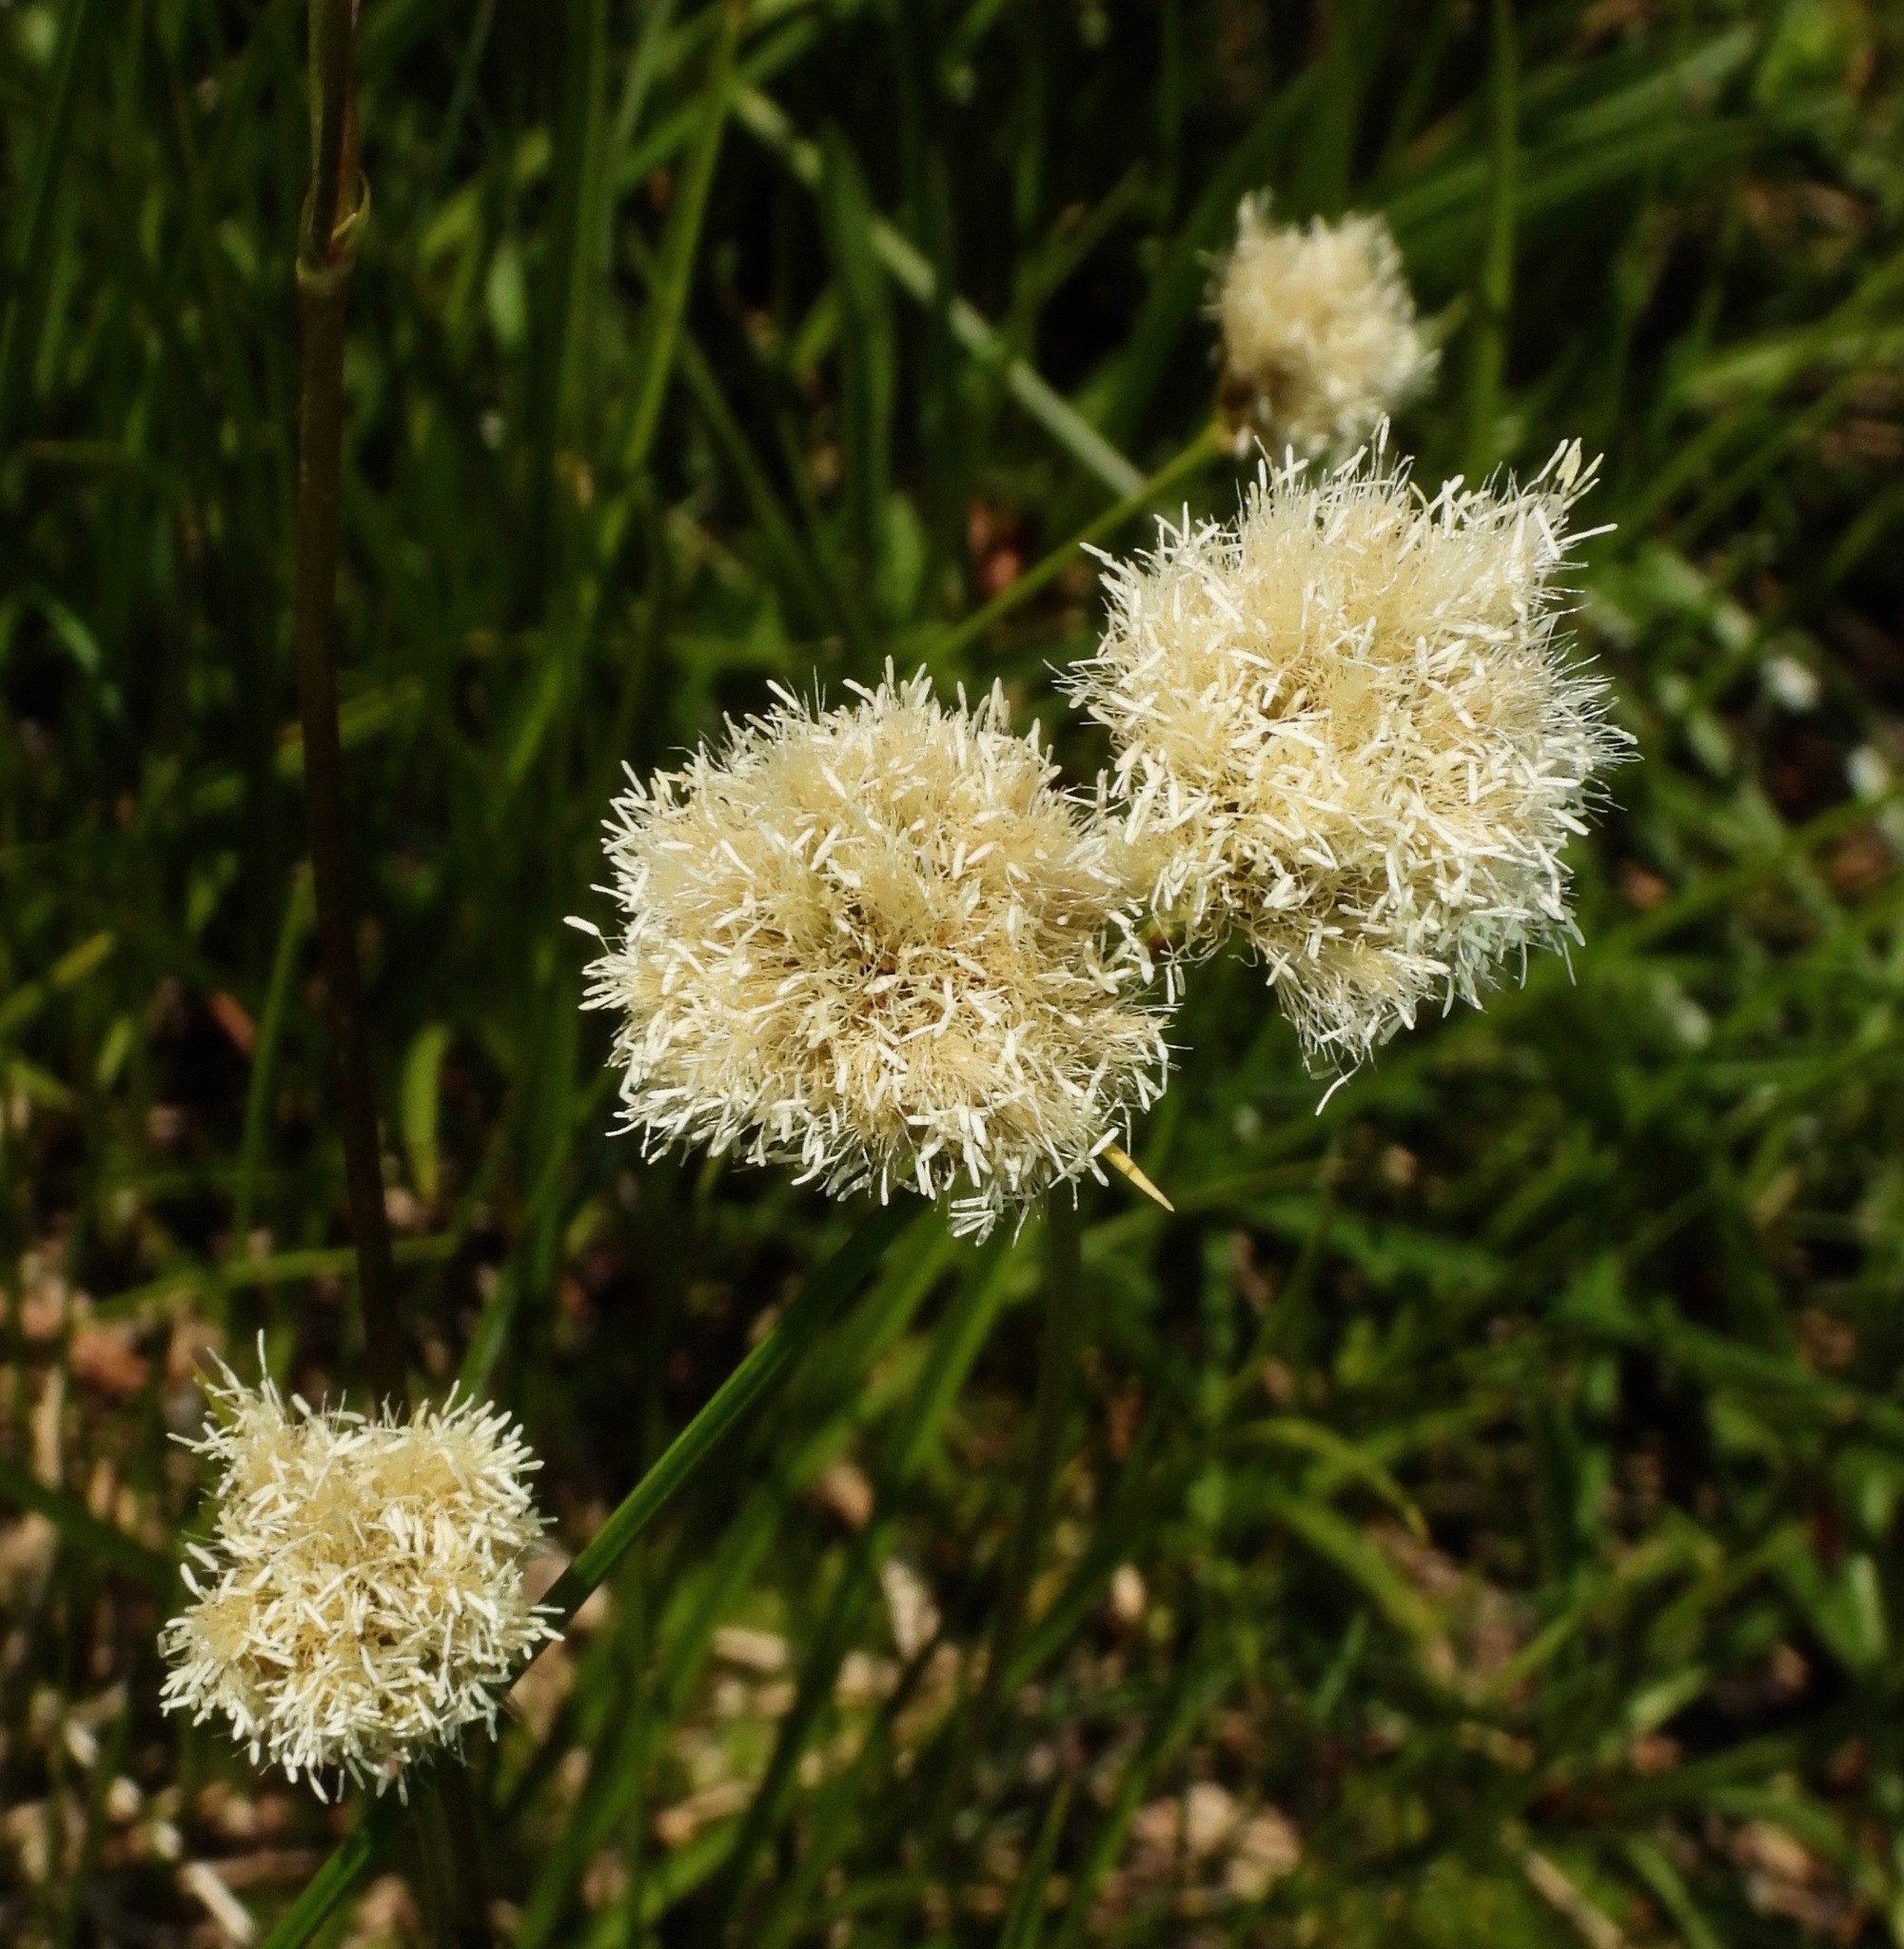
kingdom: Plantae
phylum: Tracheophyta
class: Liliopsida
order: Poales
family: Cyperaceae
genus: Calliscirpus
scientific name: Calliscirpus criniger
